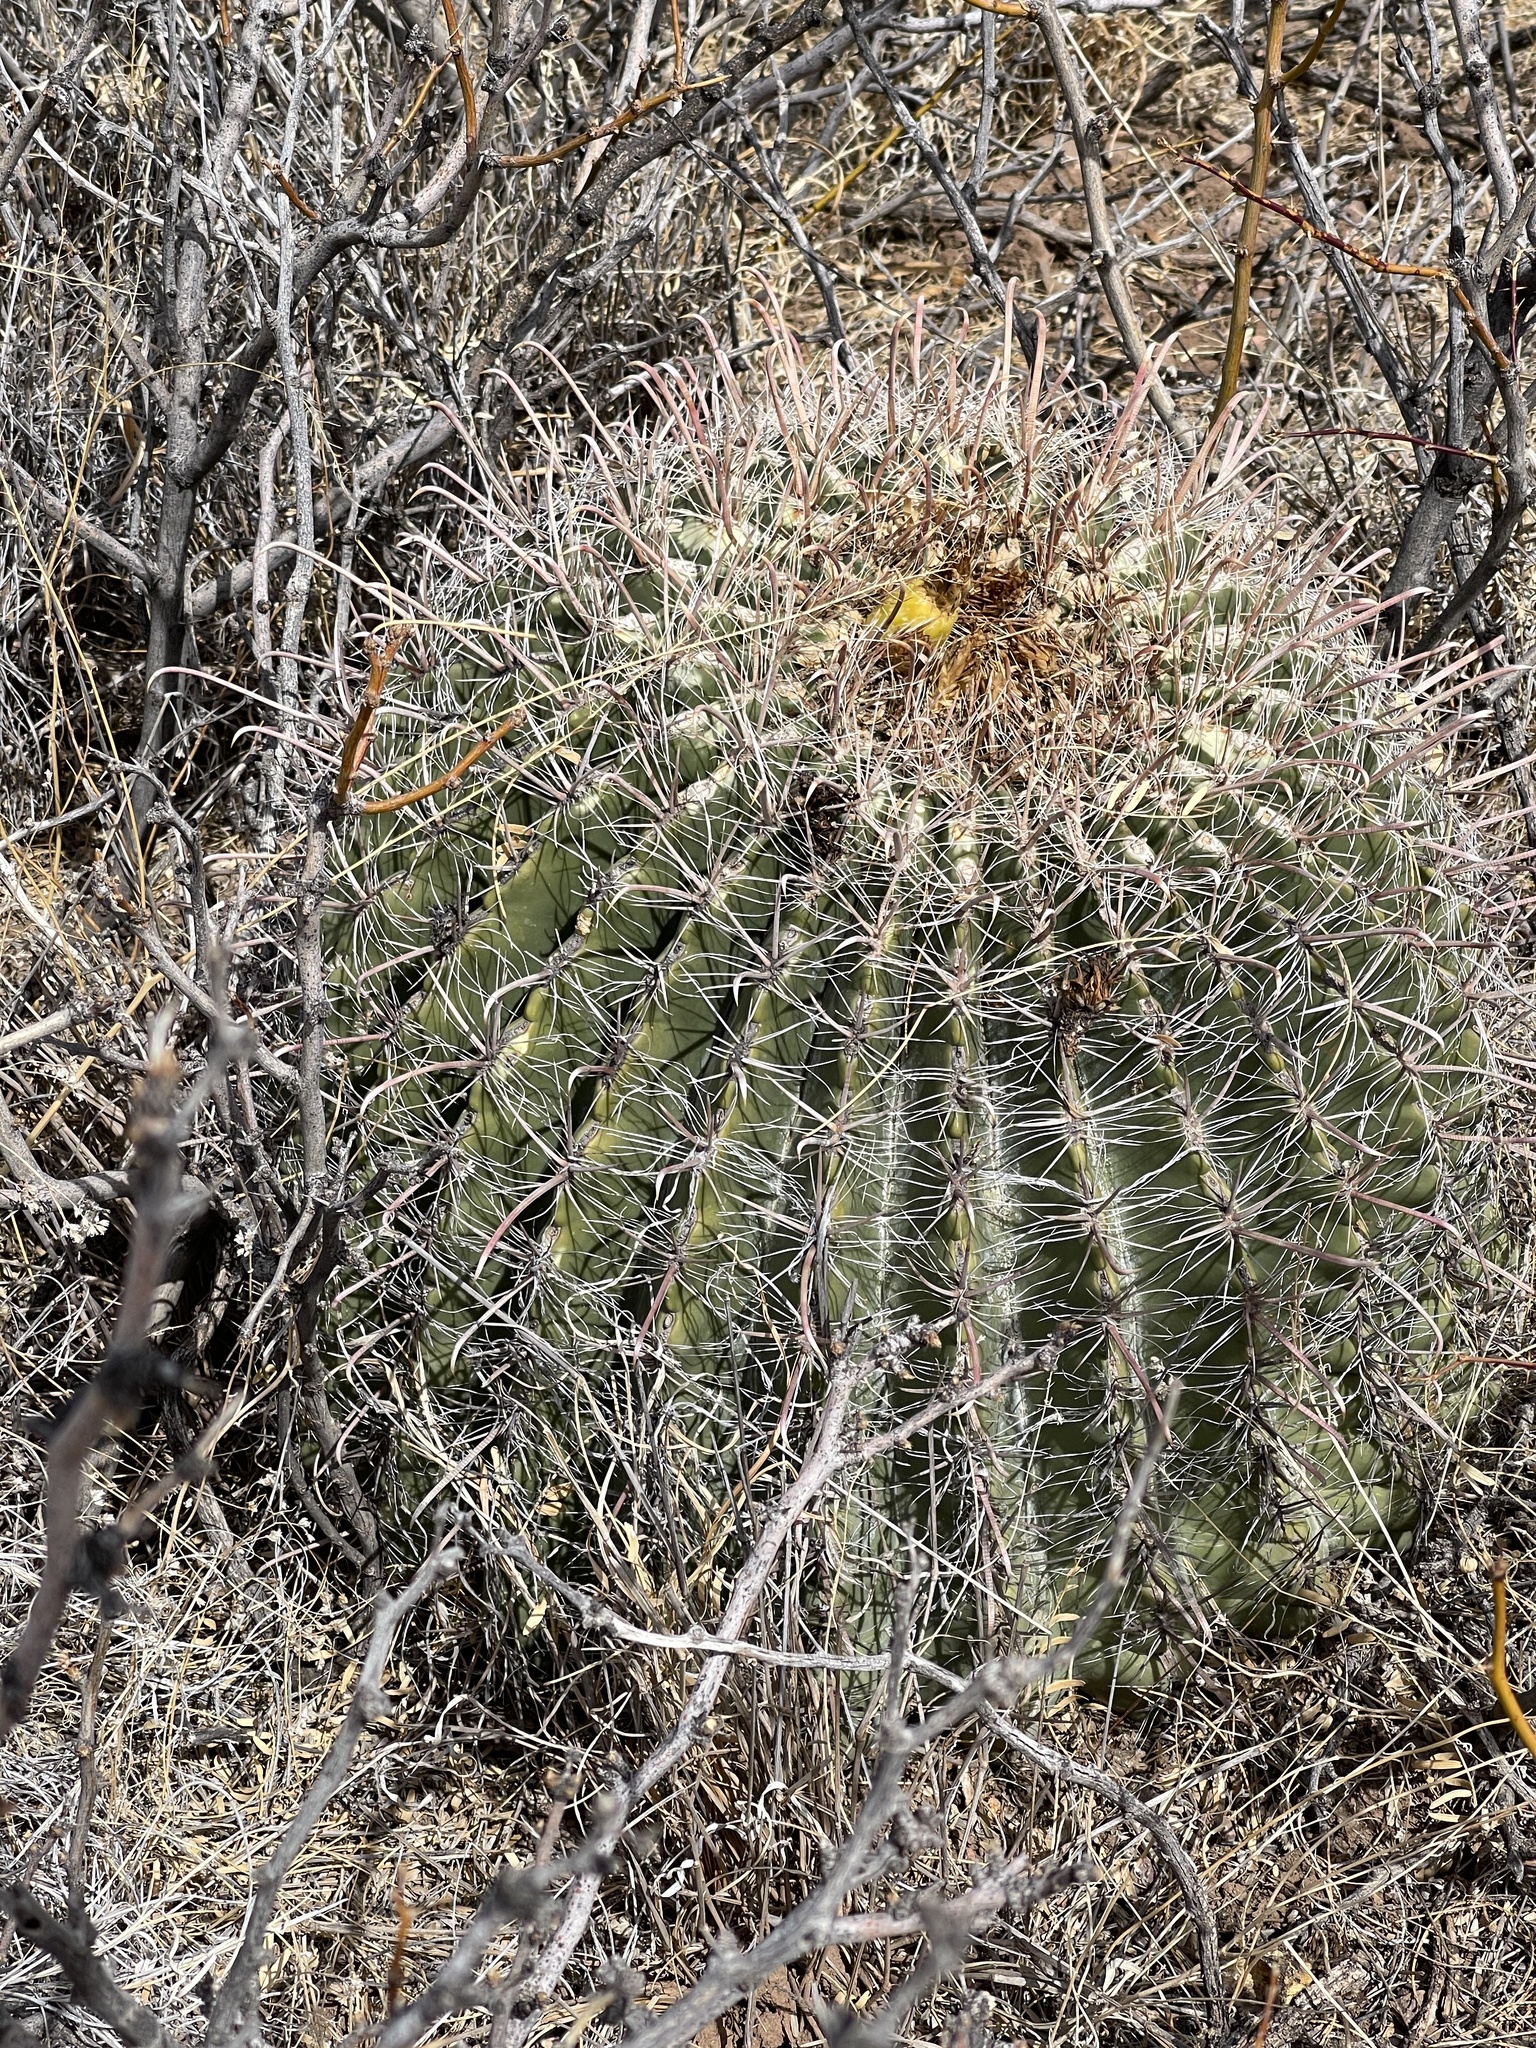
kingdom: Plantae
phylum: Tracheophyta
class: Magnoliopsida
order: Caryophyllales
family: Cactaceae
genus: Ferocactus
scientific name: Ferocactus wislizeni
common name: Candy barrel cactus
